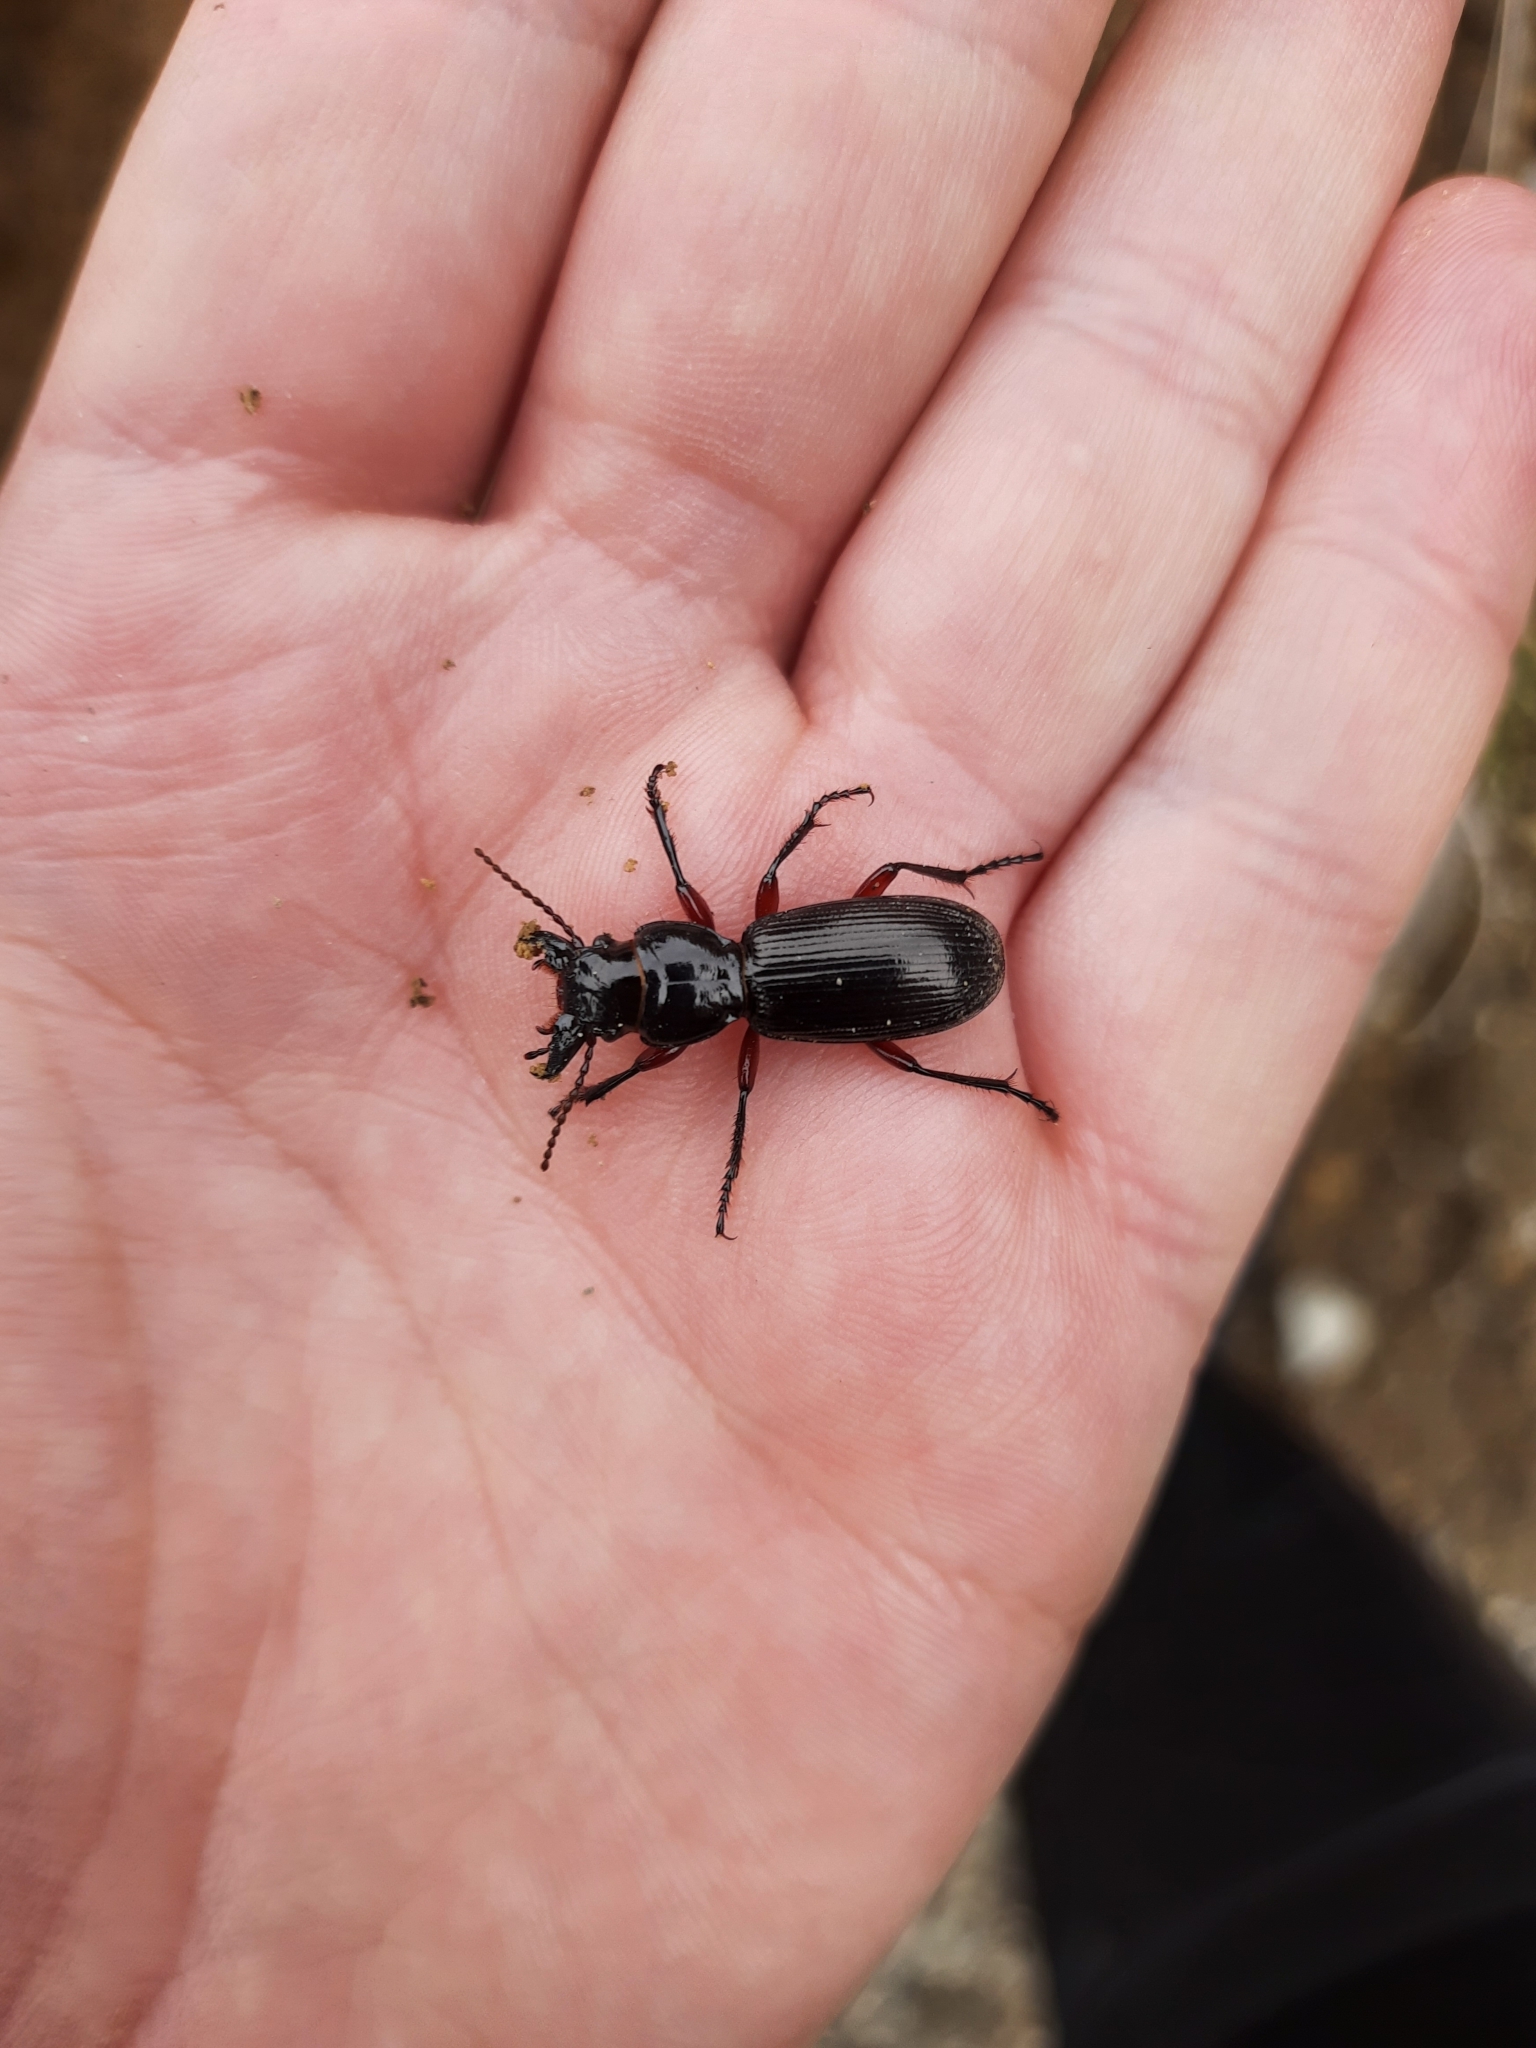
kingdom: Animalia
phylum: Arthropoda
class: Insecta
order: Coleoptera
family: Carabidae
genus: Mecodema
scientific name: Mecodema fulgidum
